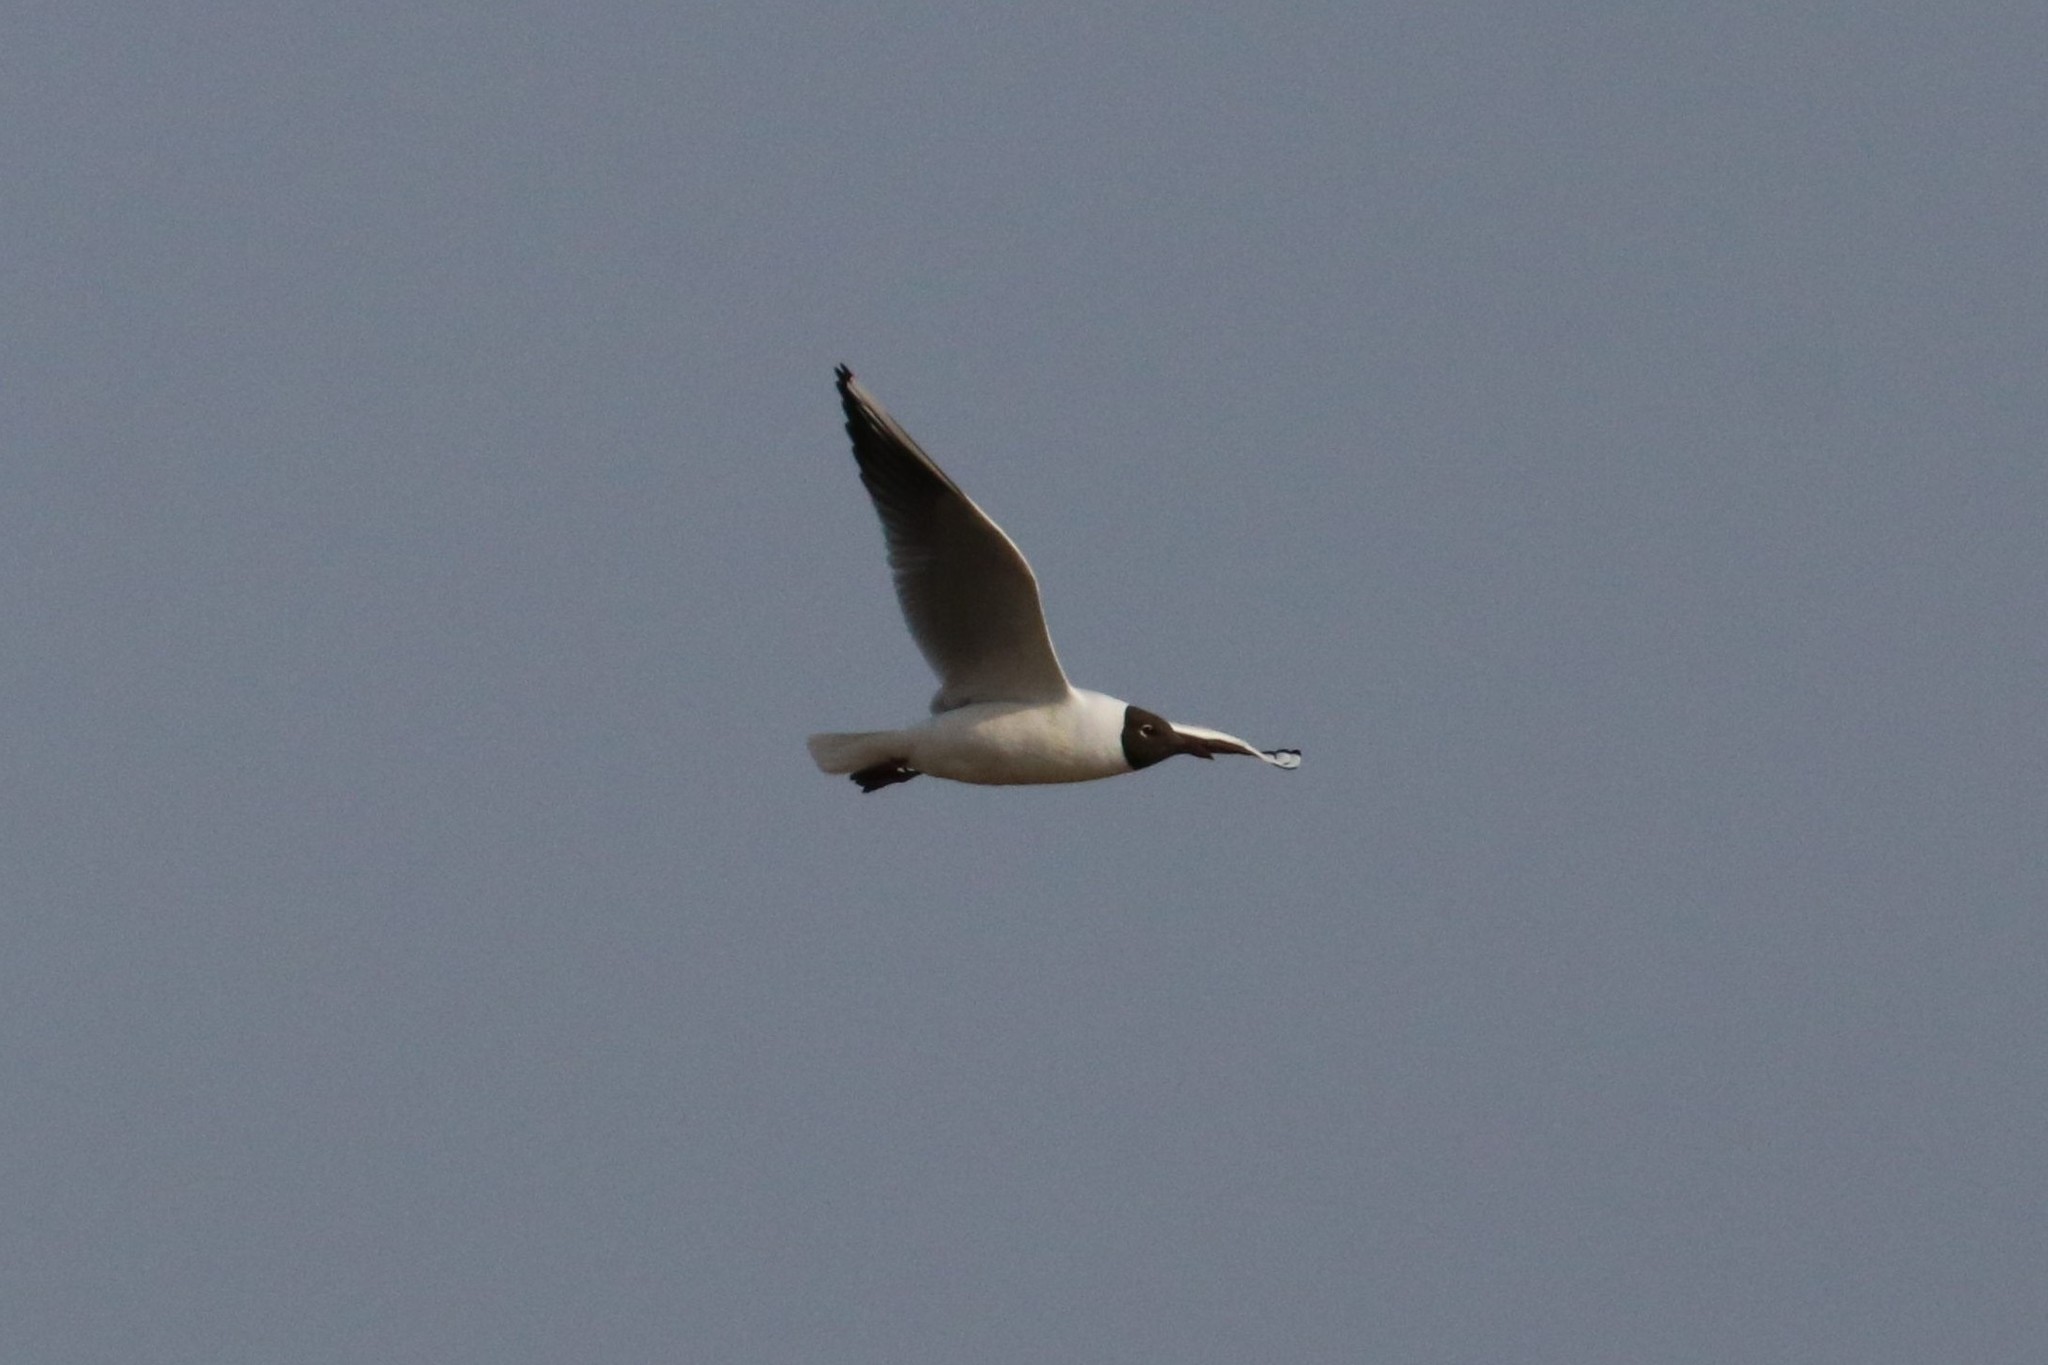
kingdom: Animalia
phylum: Chordata
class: Aves
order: Charadriiformes
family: Laridae
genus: Chroicocephalus
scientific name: Chroicocephalus ridibundus
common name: Black-headed gull
